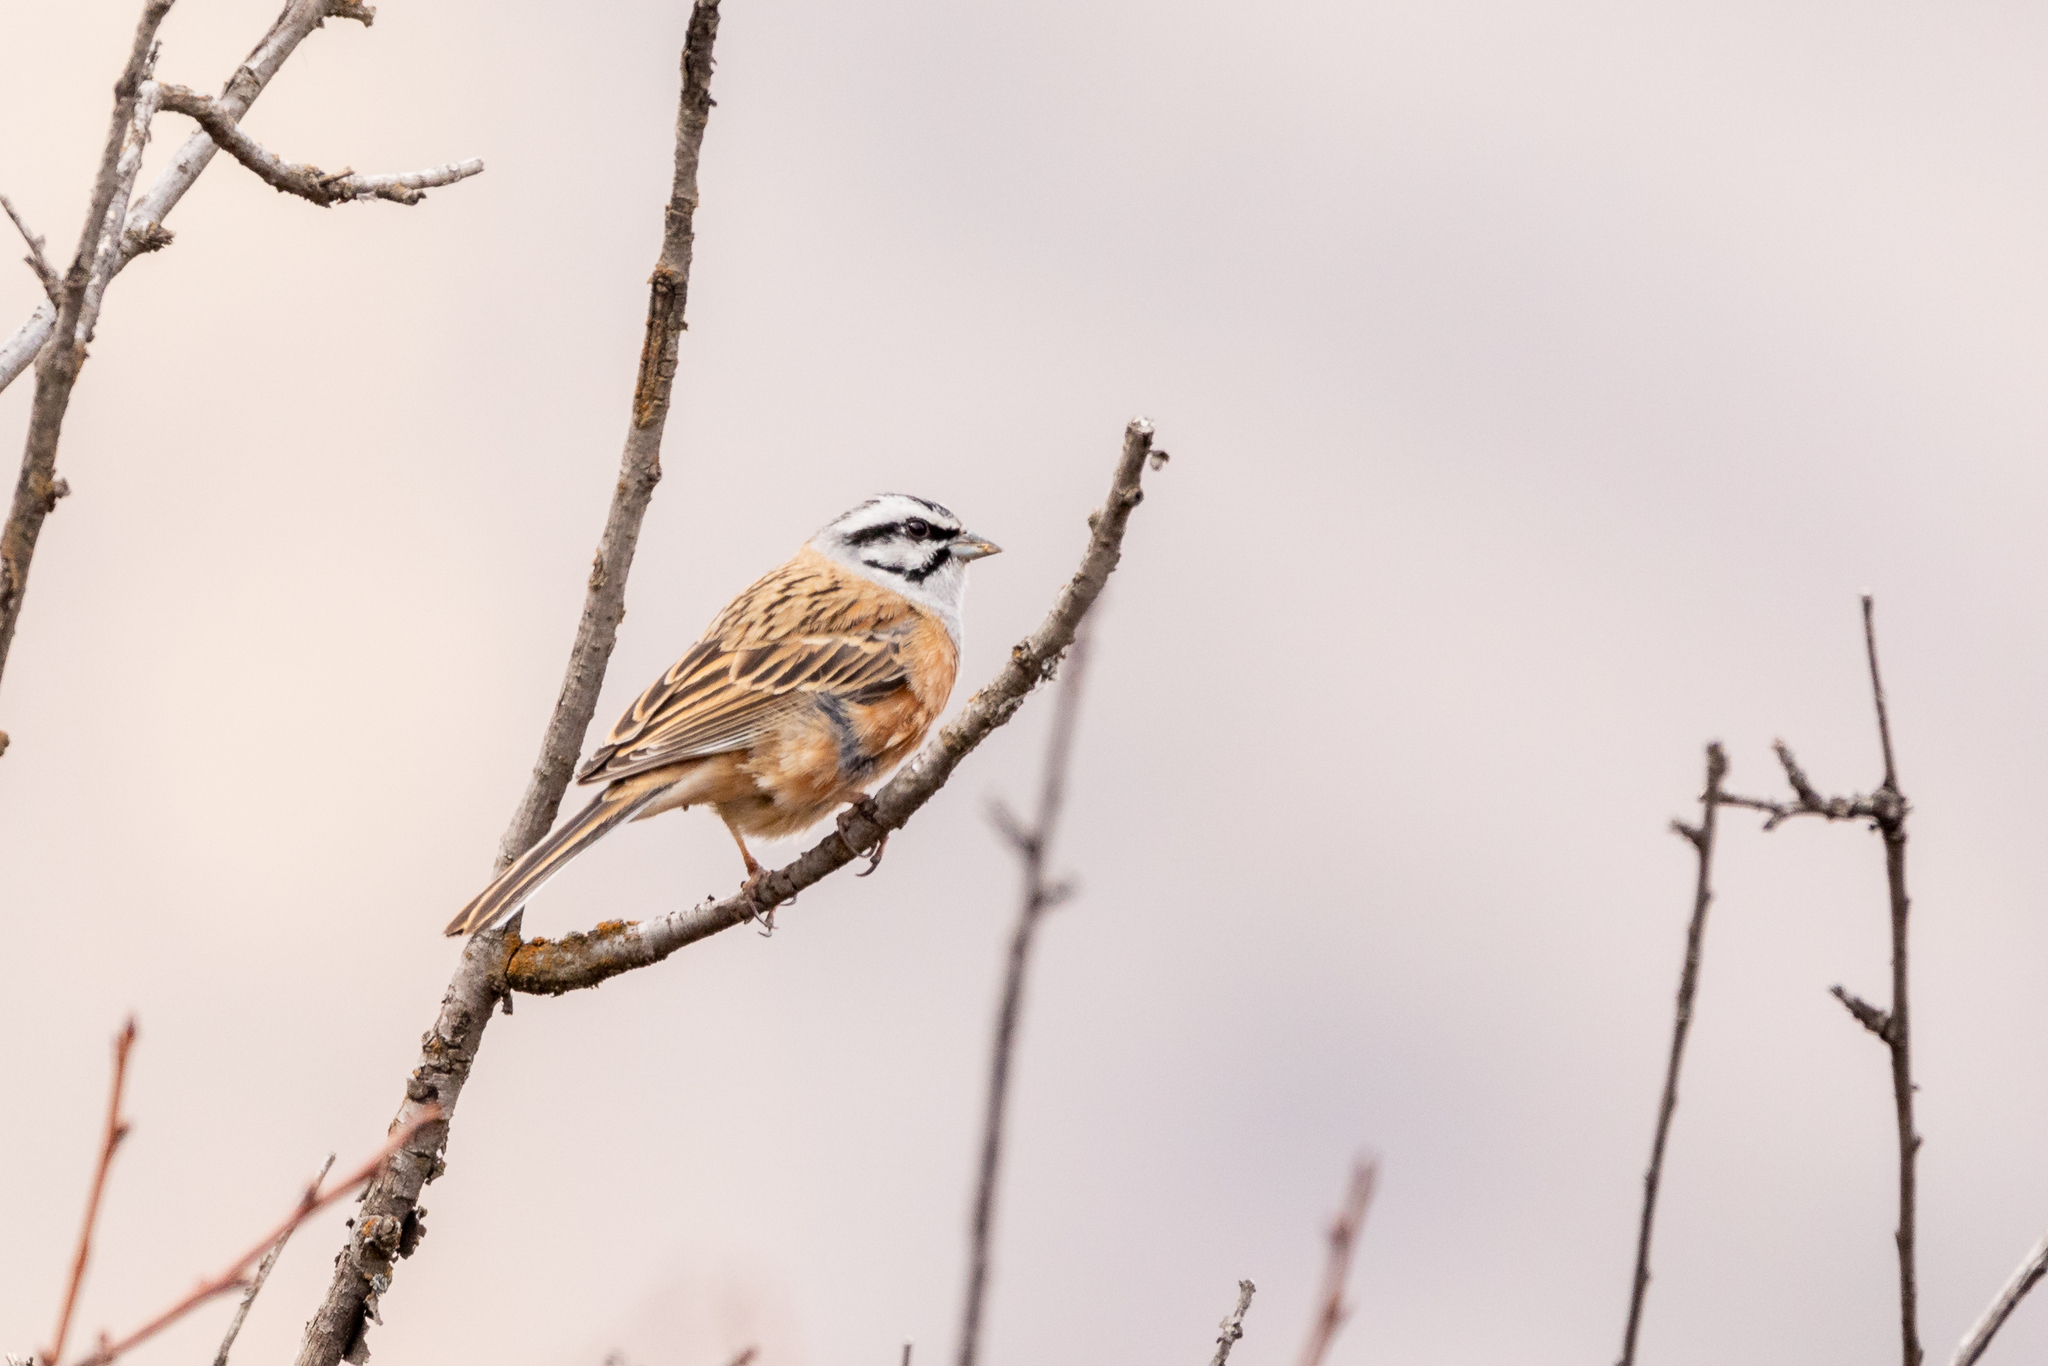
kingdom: Animalia
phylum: Chordata
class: Aves
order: Passeriformes
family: Emberizidae
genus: Emberiza
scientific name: Emberiza cia
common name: Rock bunting
